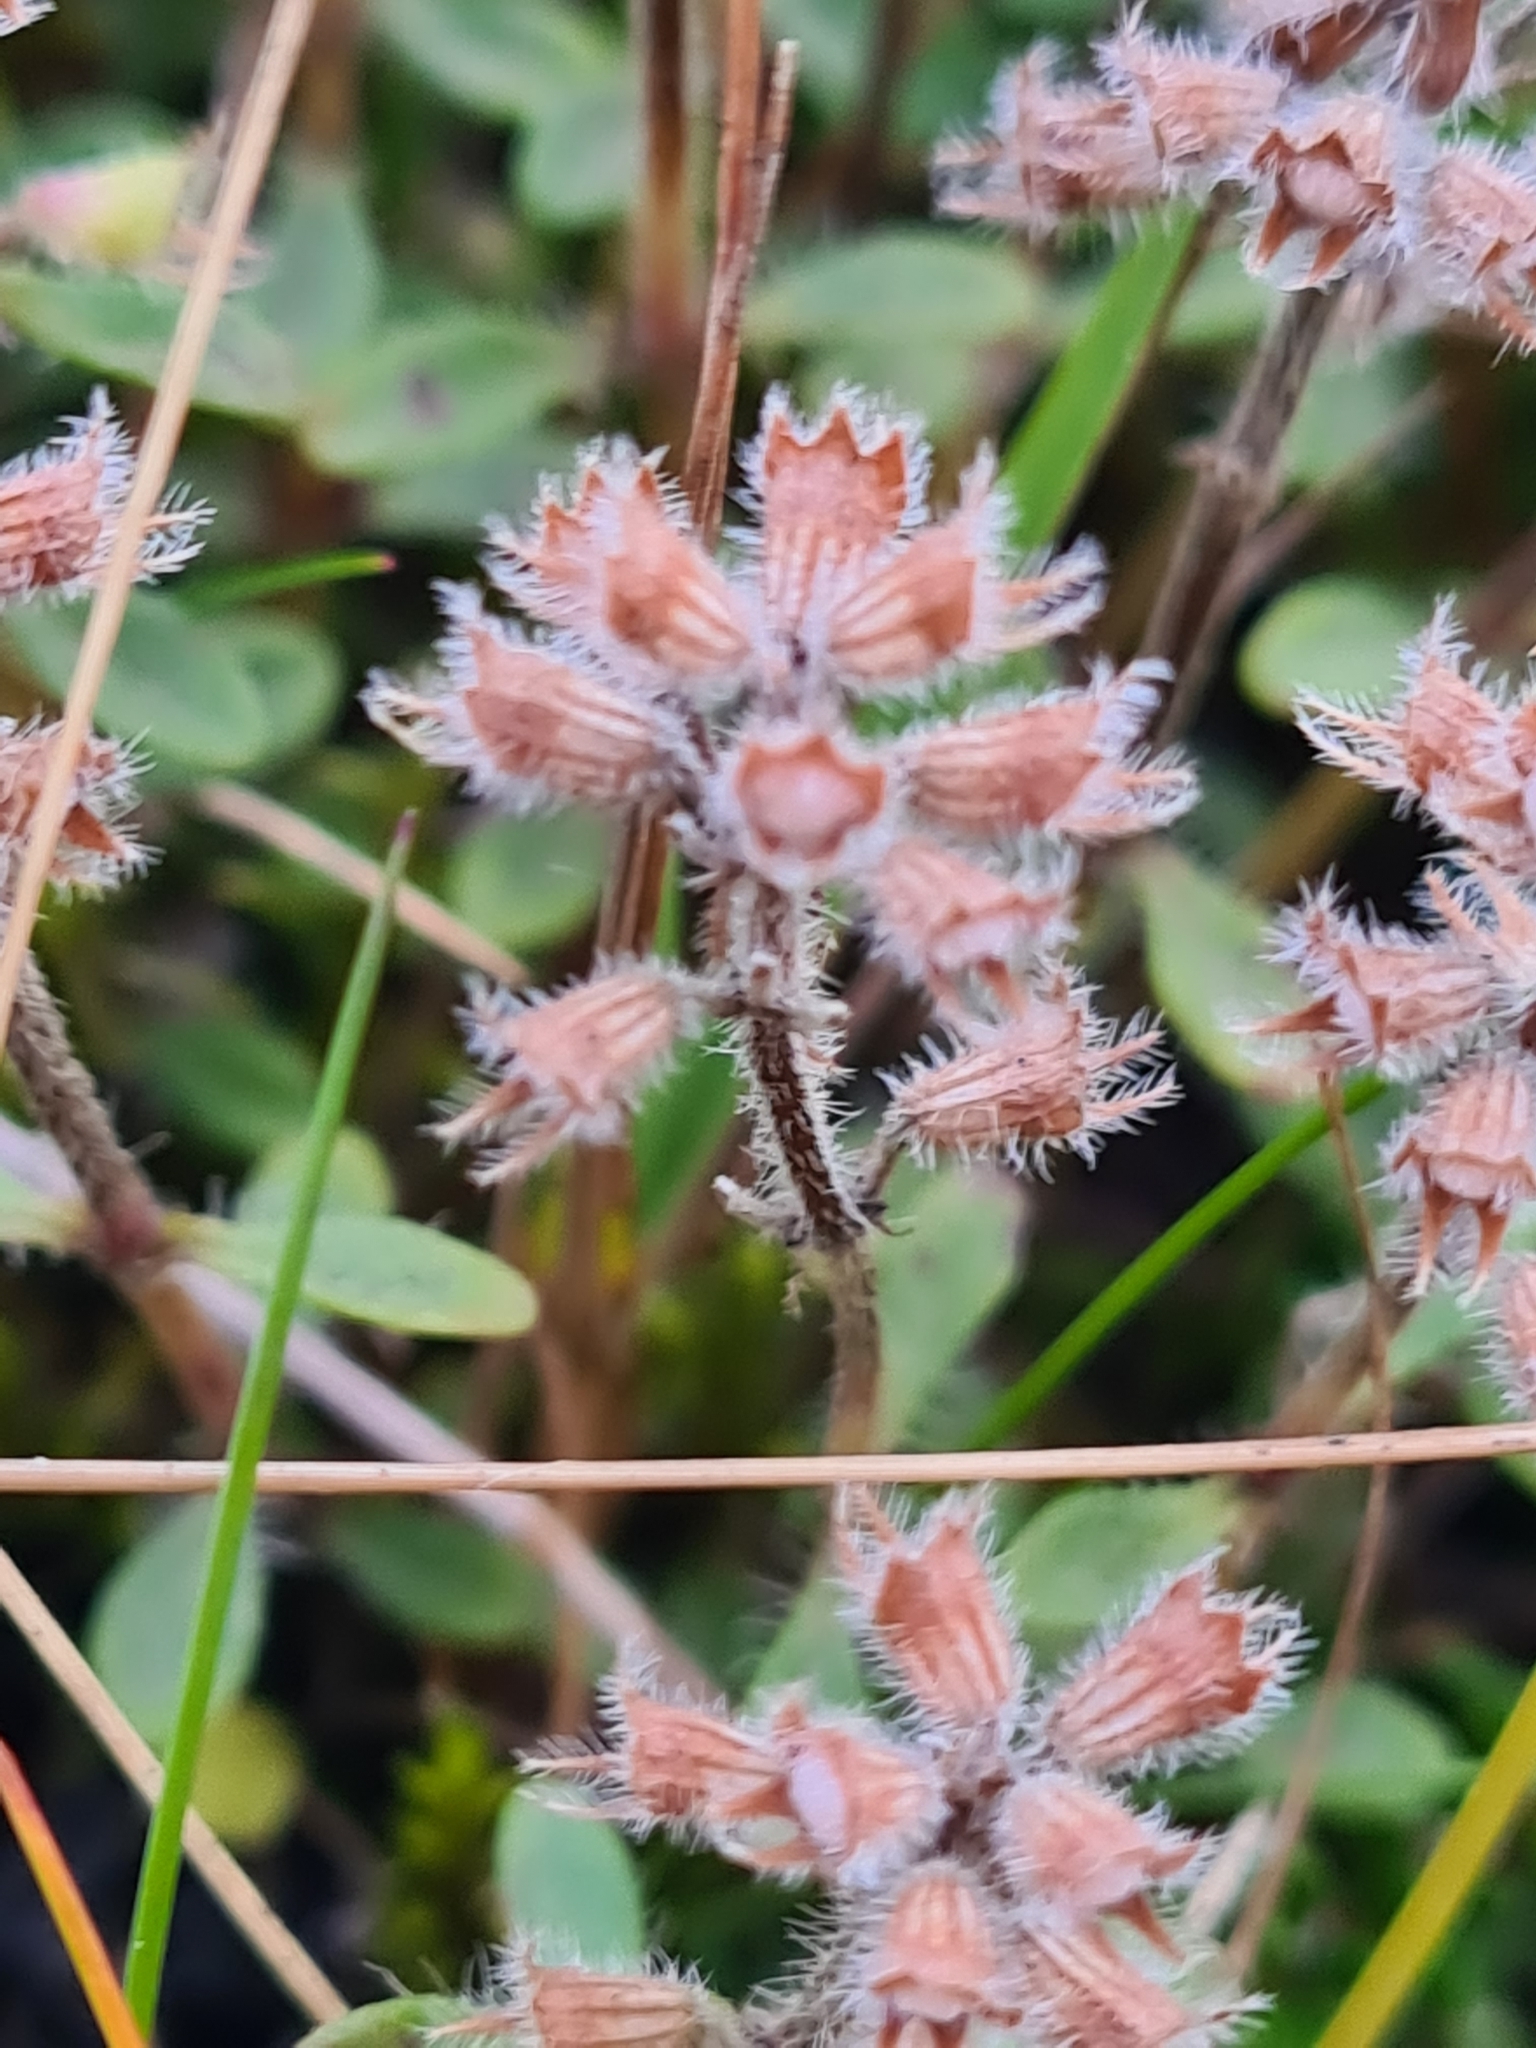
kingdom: Plantae
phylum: Tracheophyta
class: Magnoliopsida
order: Lamiales
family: Lamiaceae
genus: Thymus
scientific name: Thymus praecox
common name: Wild thyme
